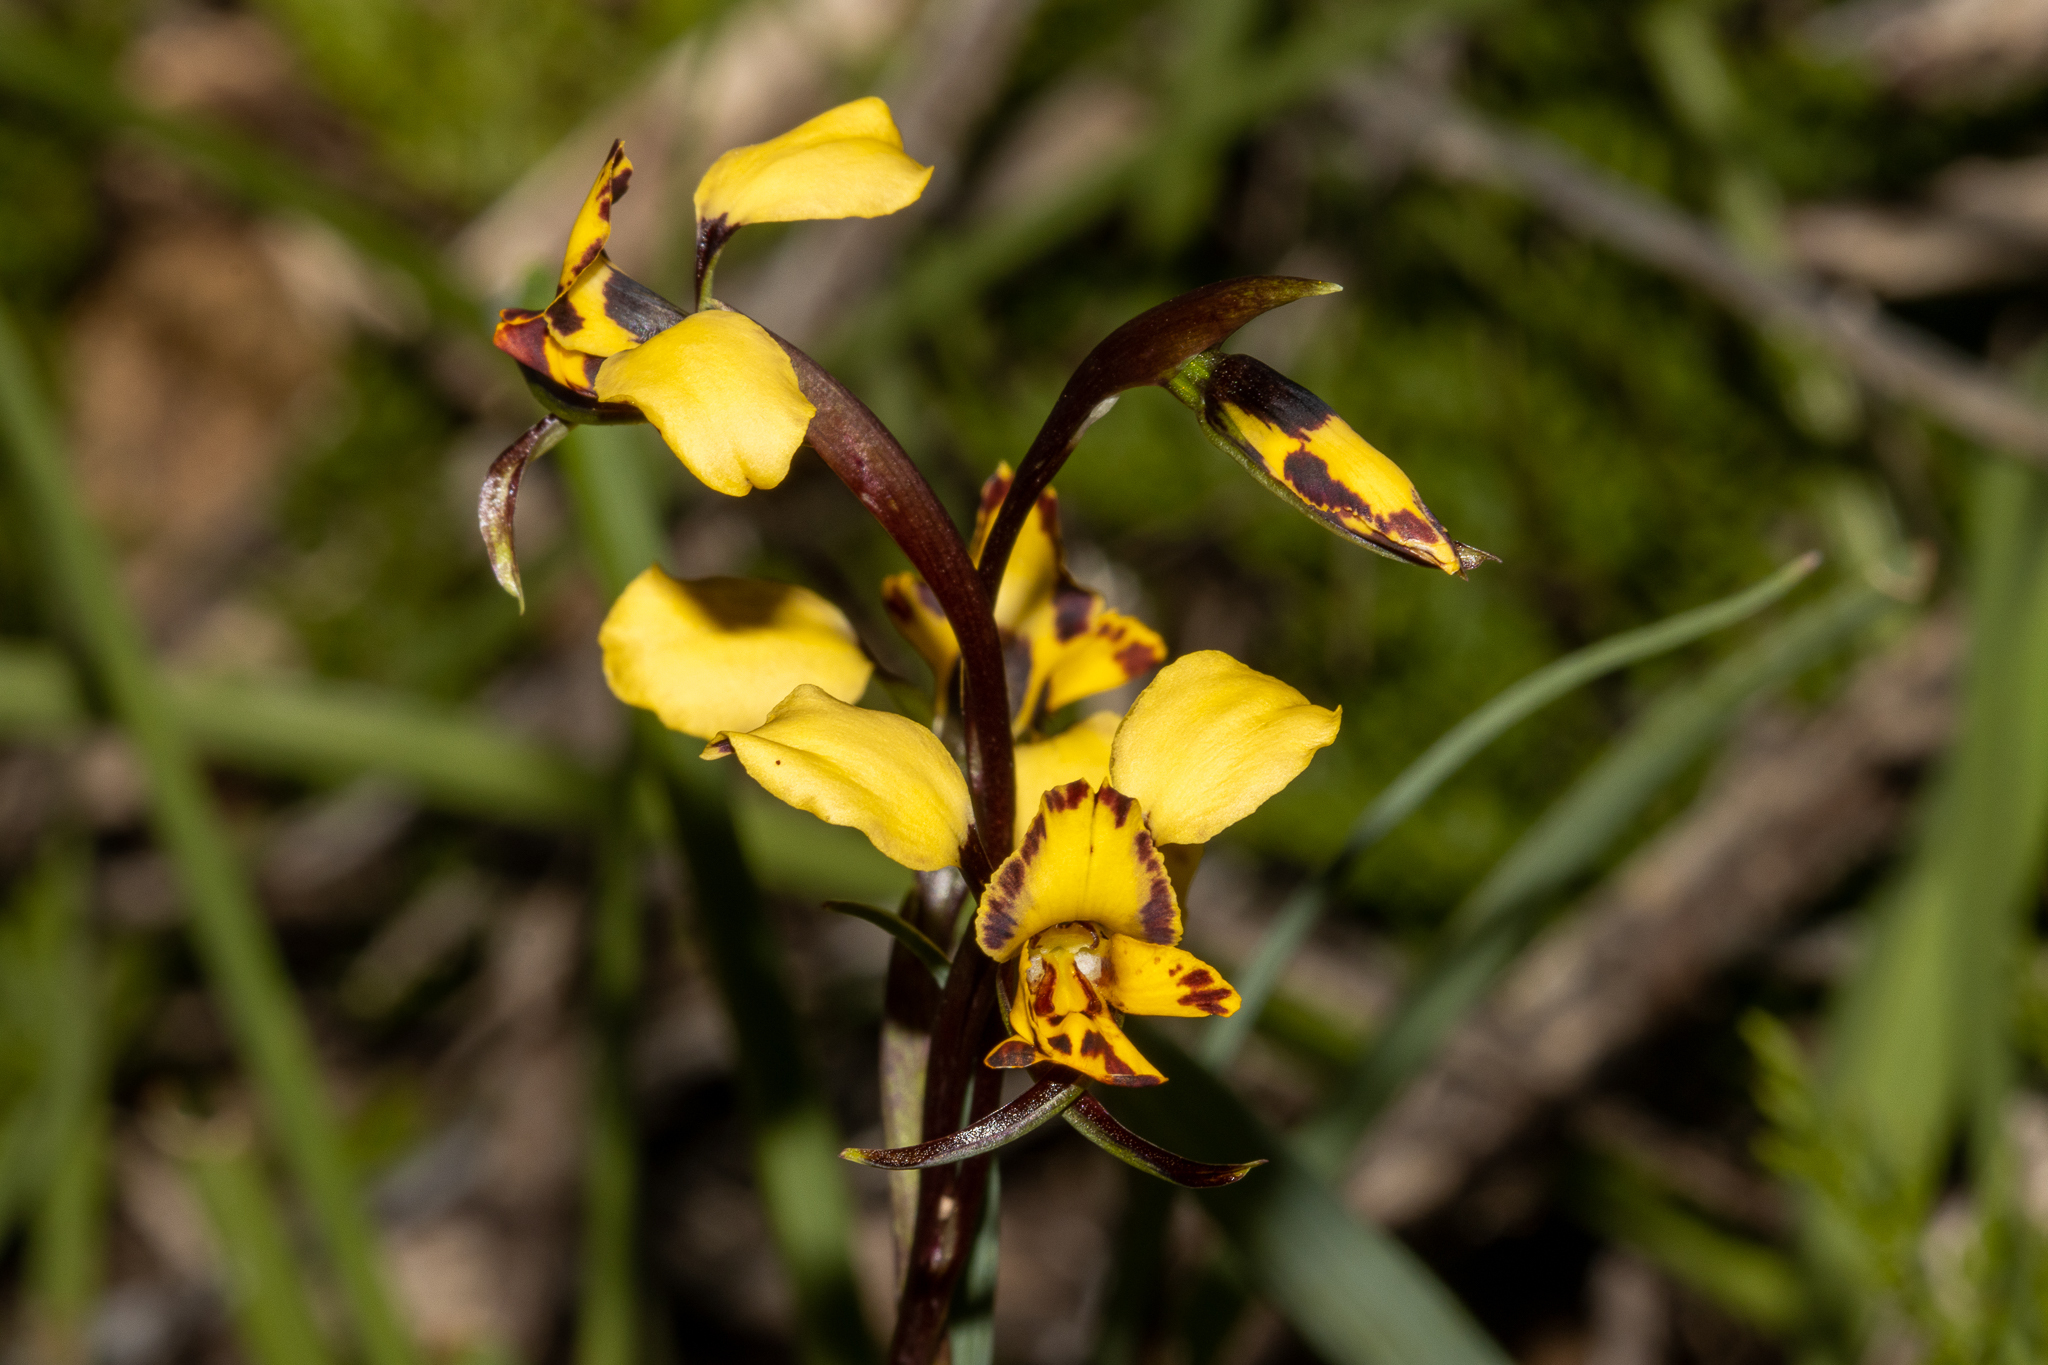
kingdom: Plantae
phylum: Tracheophyta
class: Liliopsida
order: Asparagales
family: Orchidaceae
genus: Diuris
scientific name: Diuris pardina
